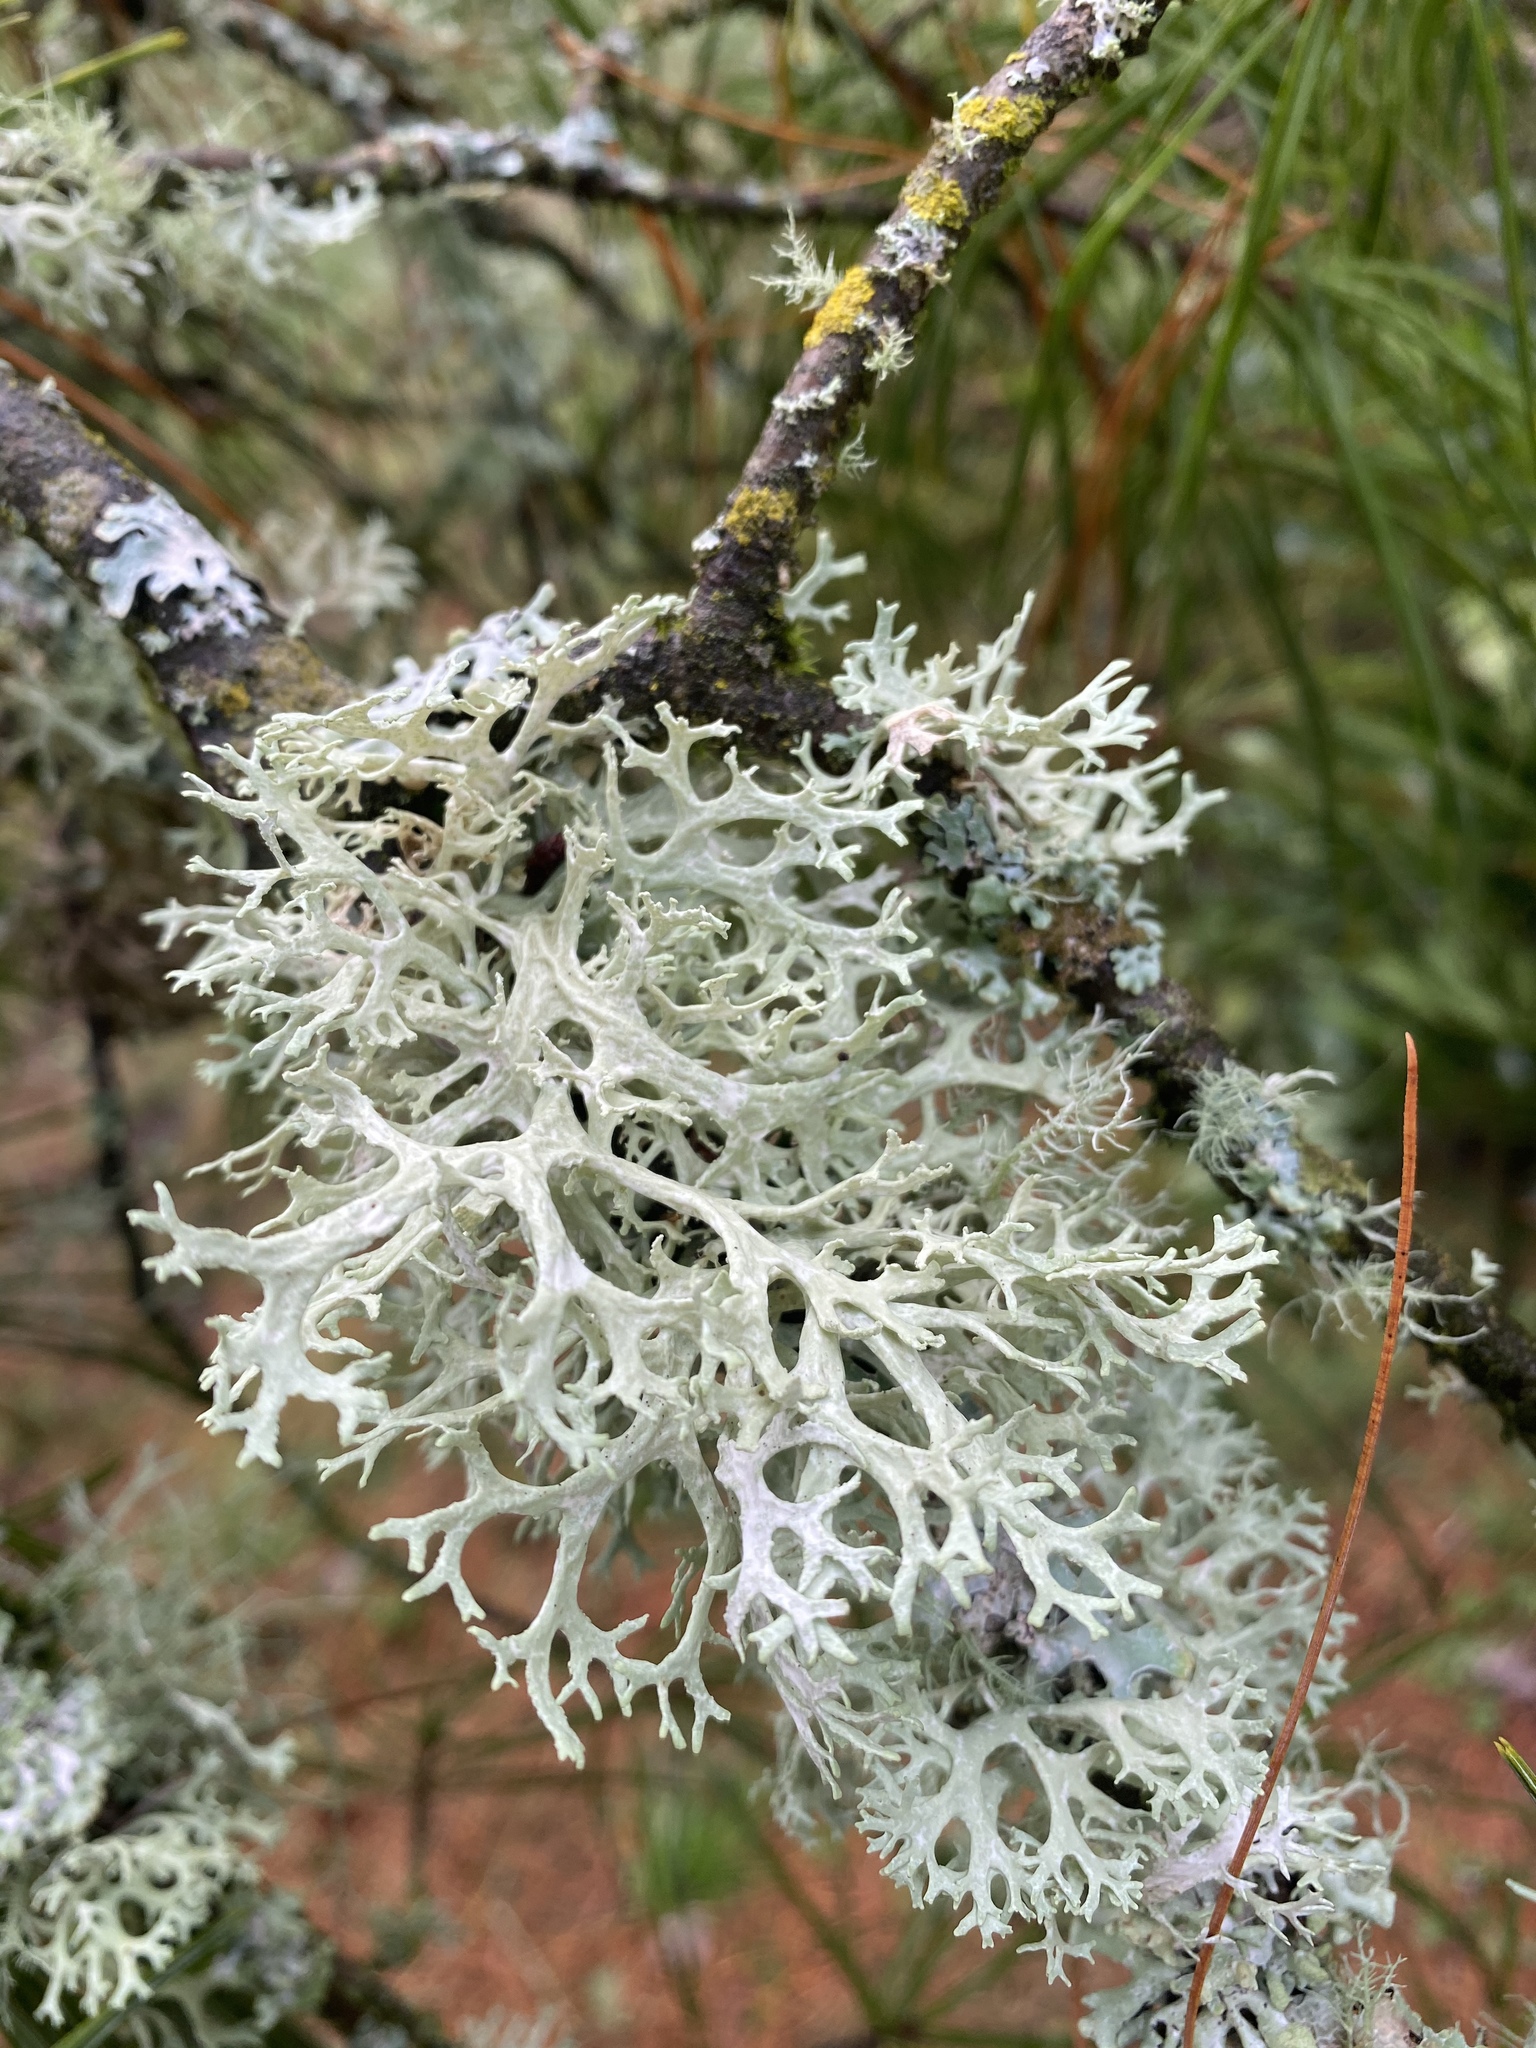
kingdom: Fungi
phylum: Ascomycota
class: Lecanoromycetes
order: Lecanorales
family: Parmeliaceae
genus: Evernia
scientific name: Evernia prunastri
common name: Oak moss
